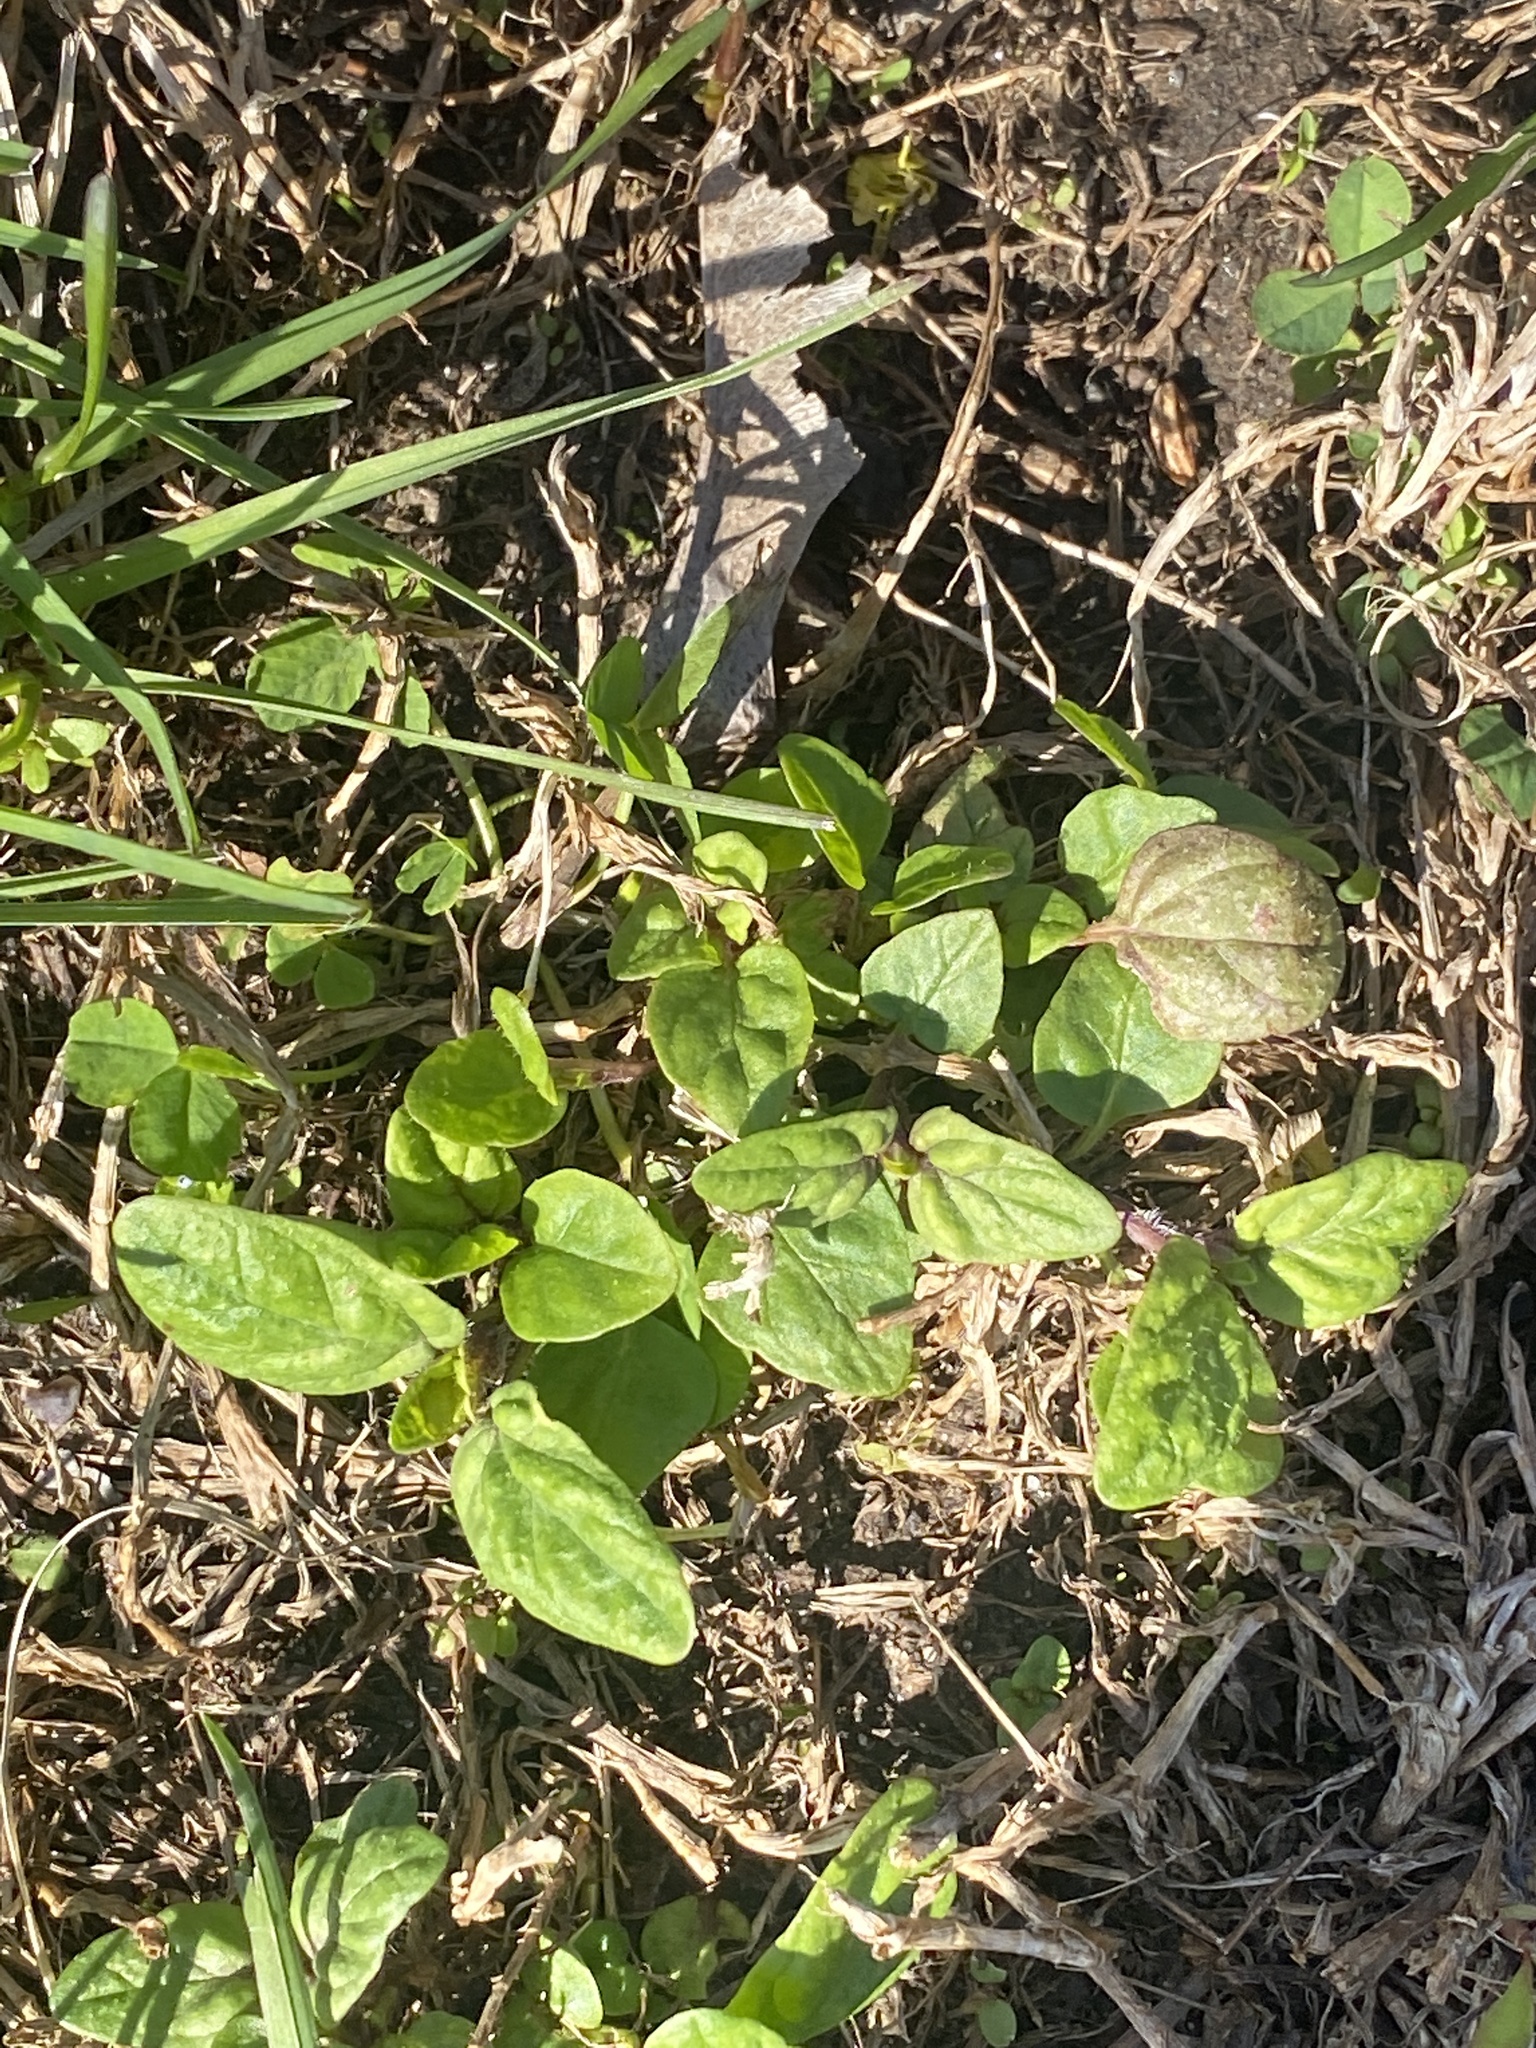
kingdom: Plantae
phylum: Tracheophyta
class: Magnoliopsida
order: Lamiales
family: Lamiaceae
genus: Prunella
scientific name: Prunella vulgaris
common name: Heal-all
